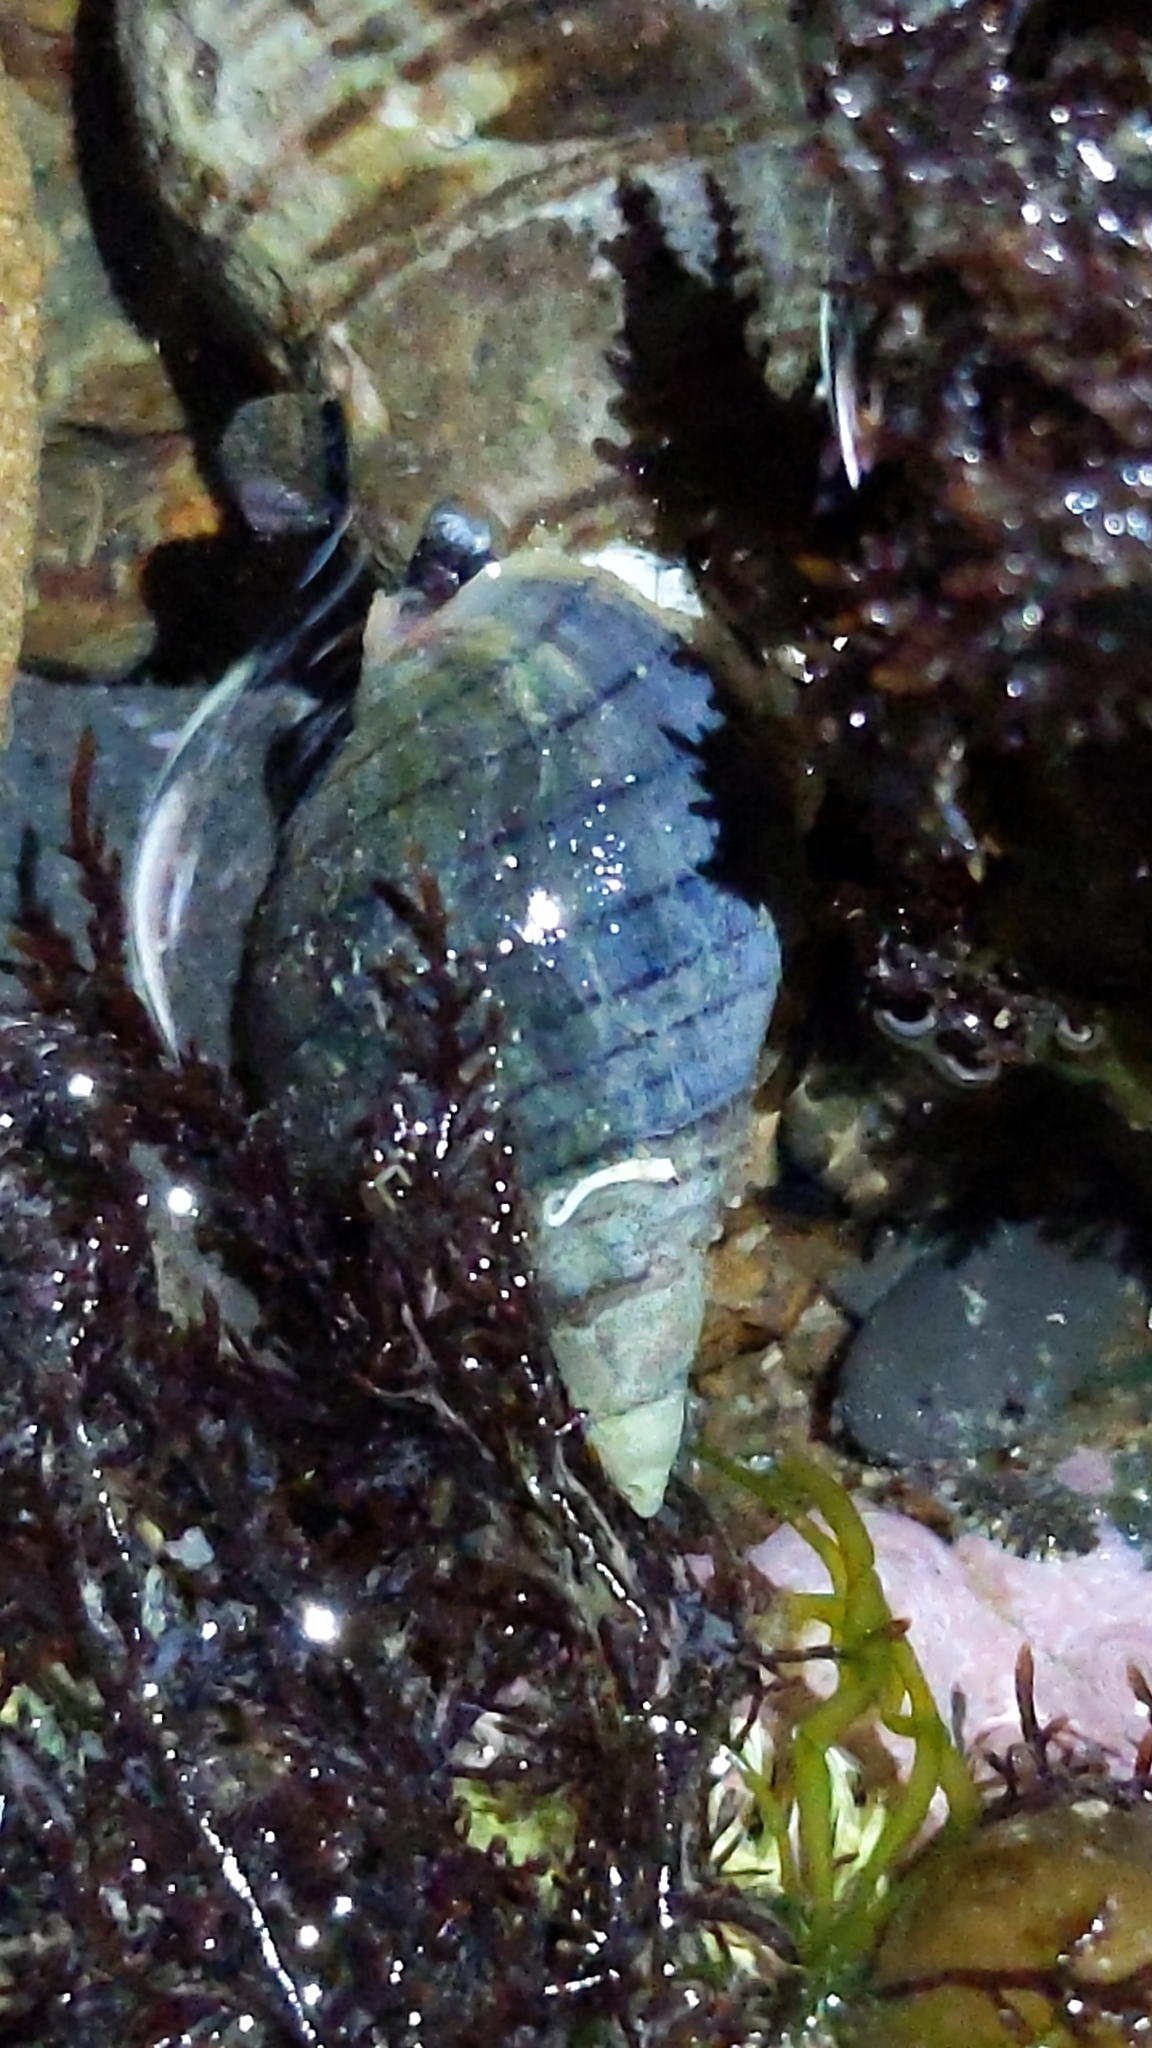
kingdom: Animalia
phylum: Mollusca
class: Gastropoda
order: Neogastropoda
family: Cominellidae
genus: Cominella
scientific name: Cominella virgata
